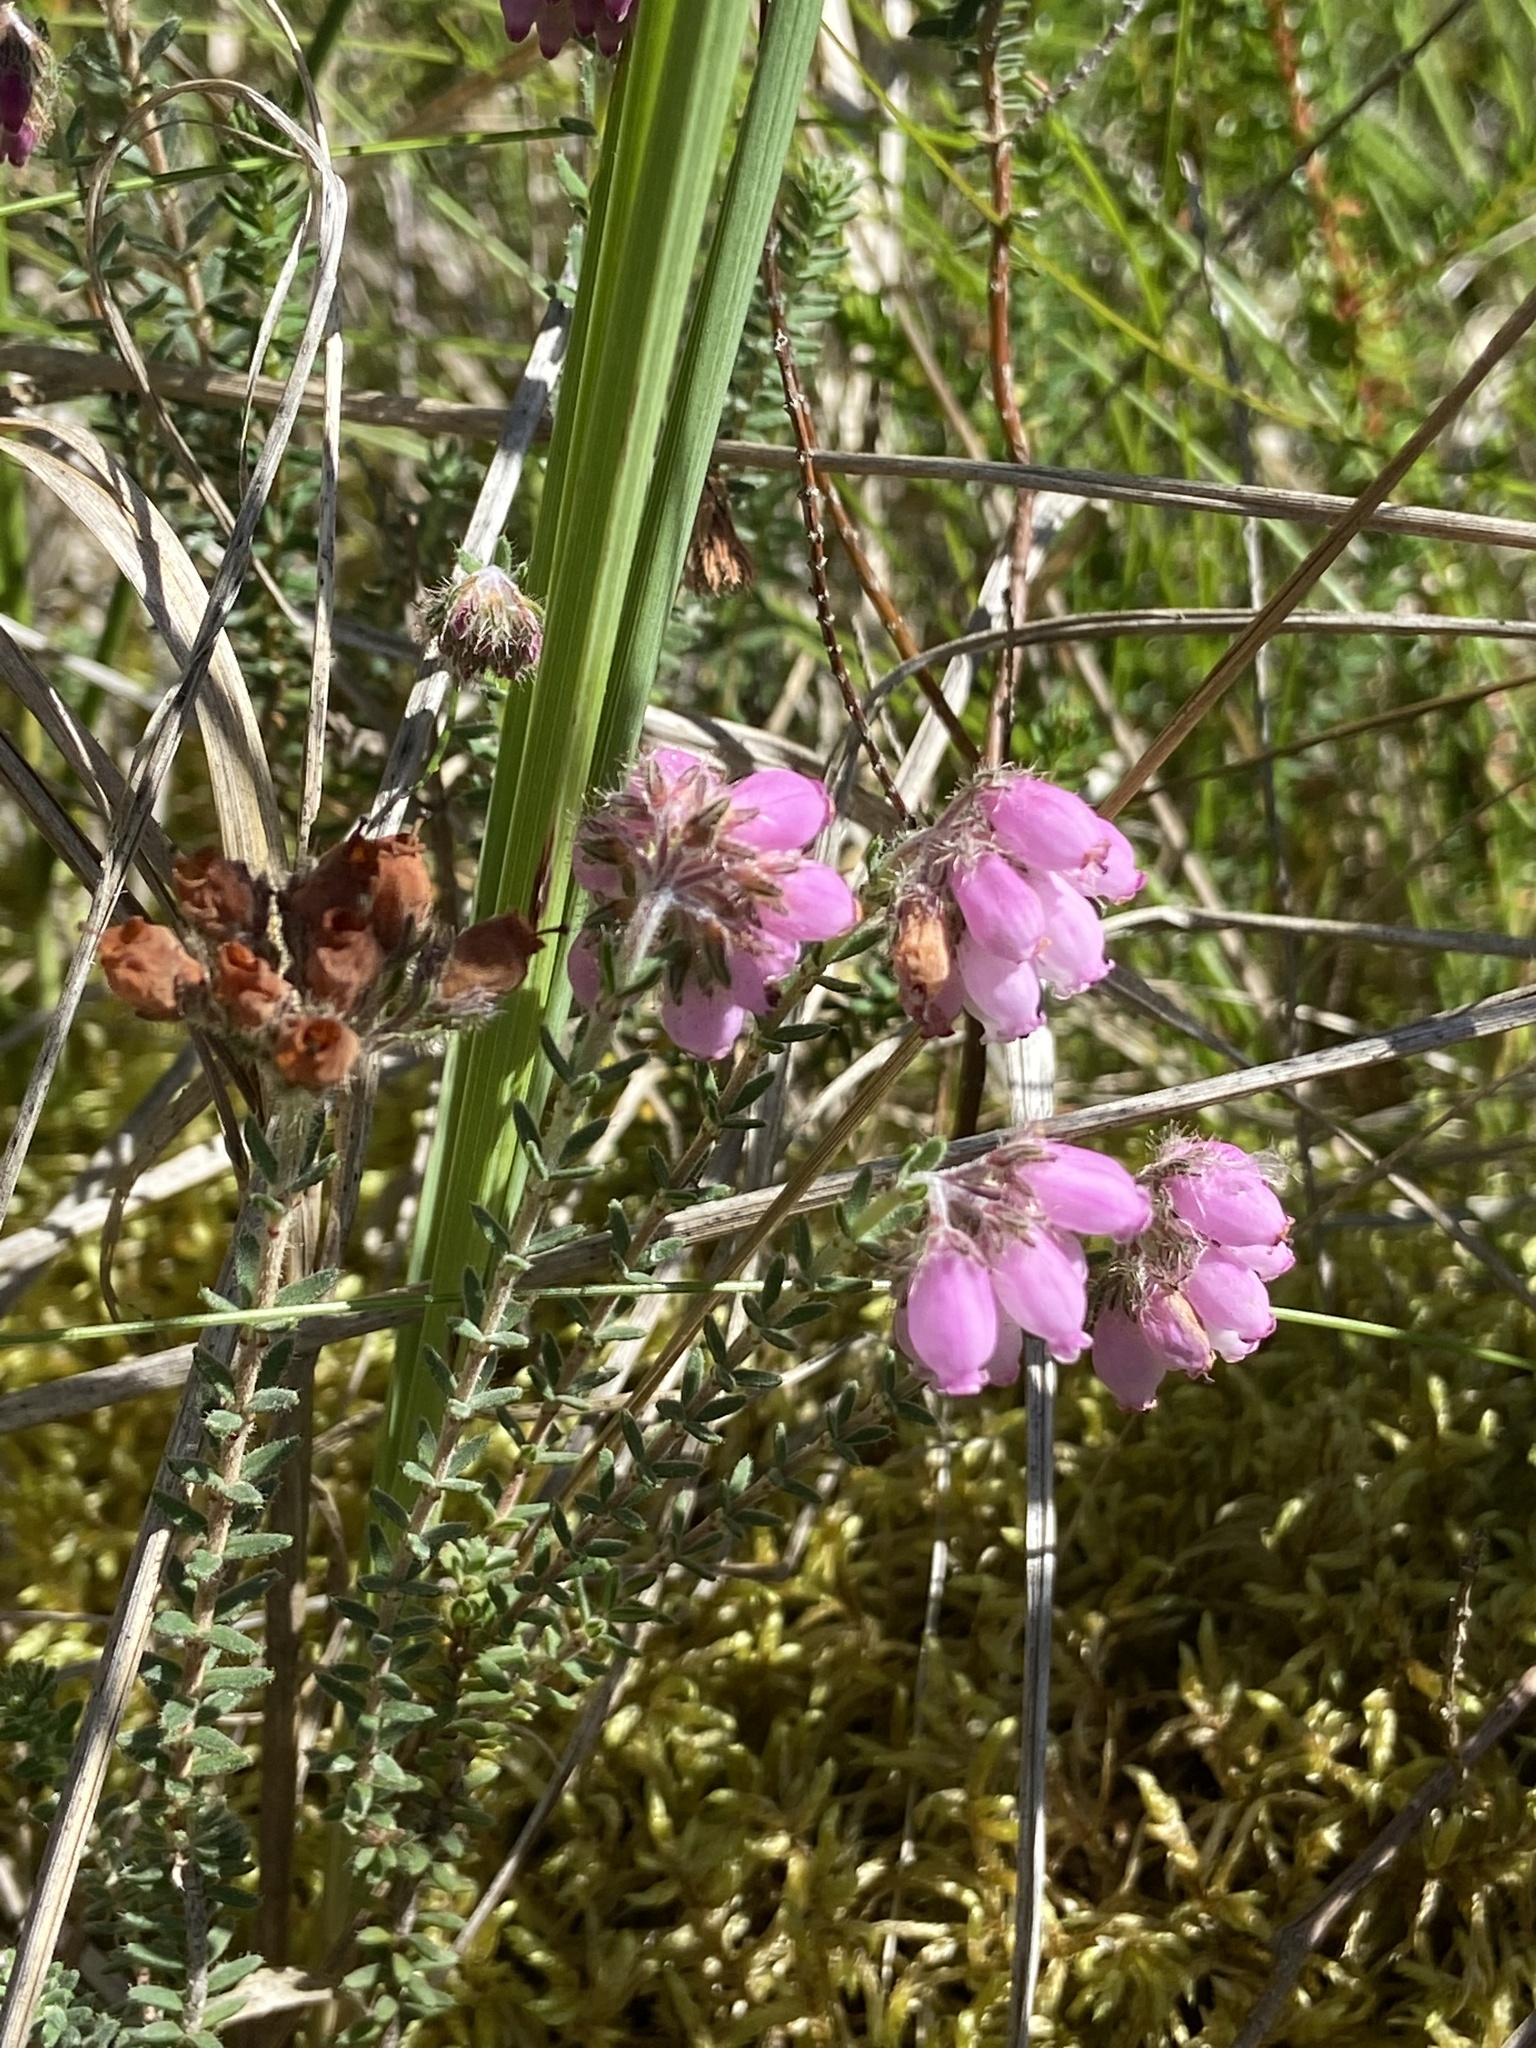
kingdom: Plantae
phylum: Tracheophyta
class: Magnoliopsida
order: Ericales
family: Ericaceae
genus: Erica
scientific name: Erica tetralix
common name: Cross-leaved heath
